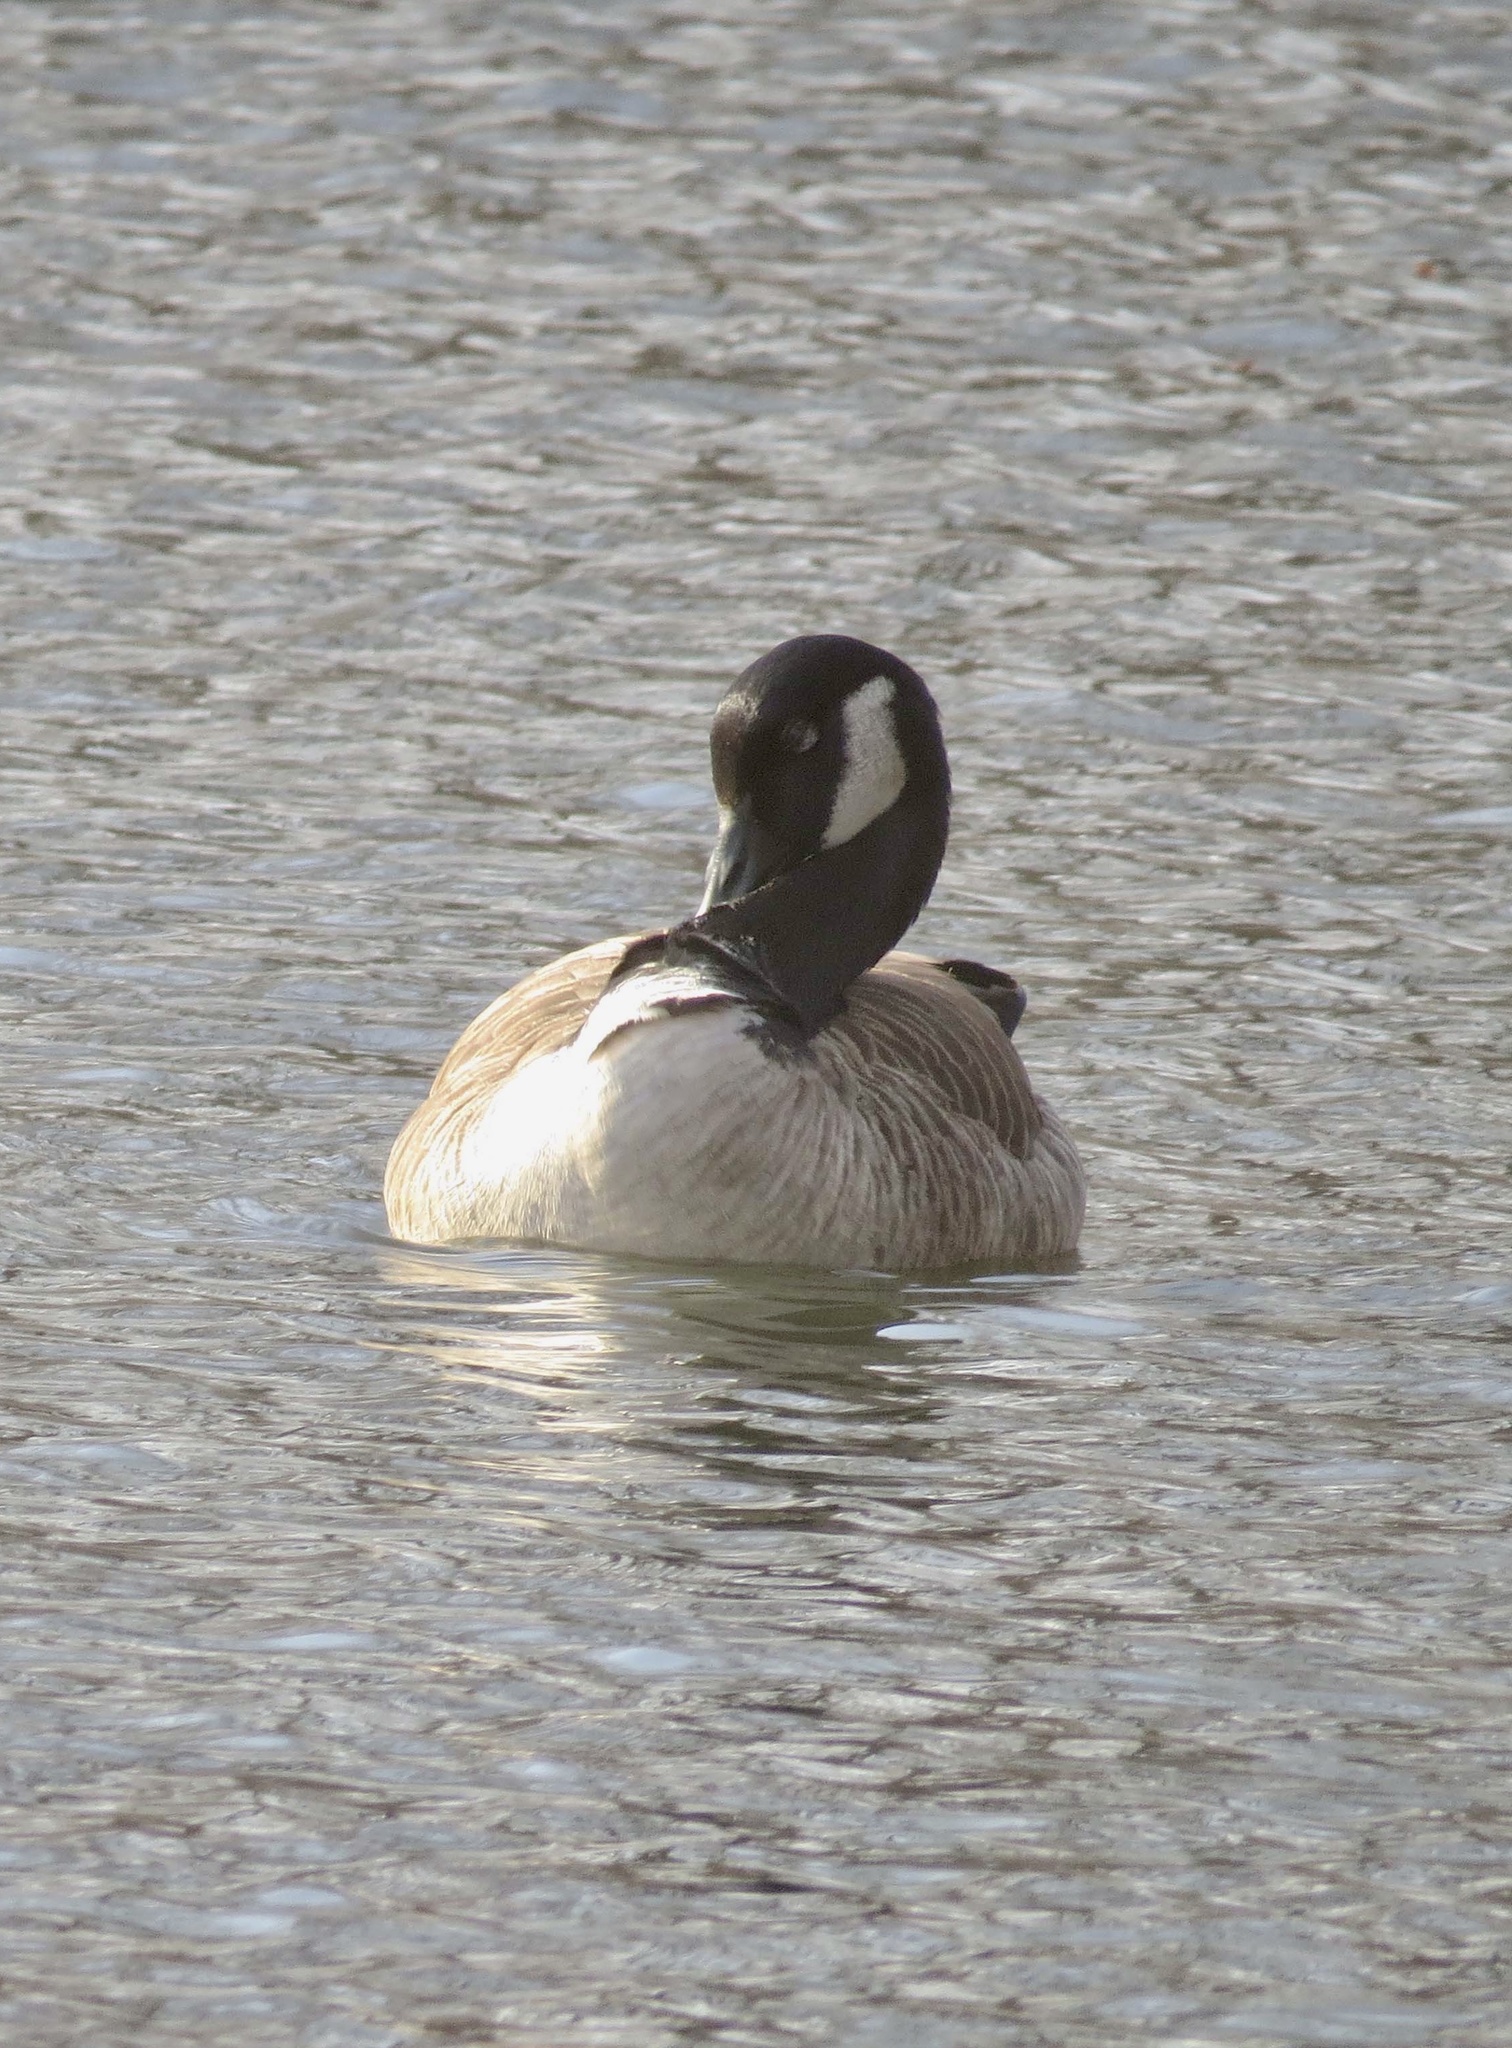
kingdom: Animalia
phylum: Chordata
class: Aves
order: Anseriformes
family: Anatidae
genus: Branta
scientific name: Branta canadensis
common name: Canada goose
